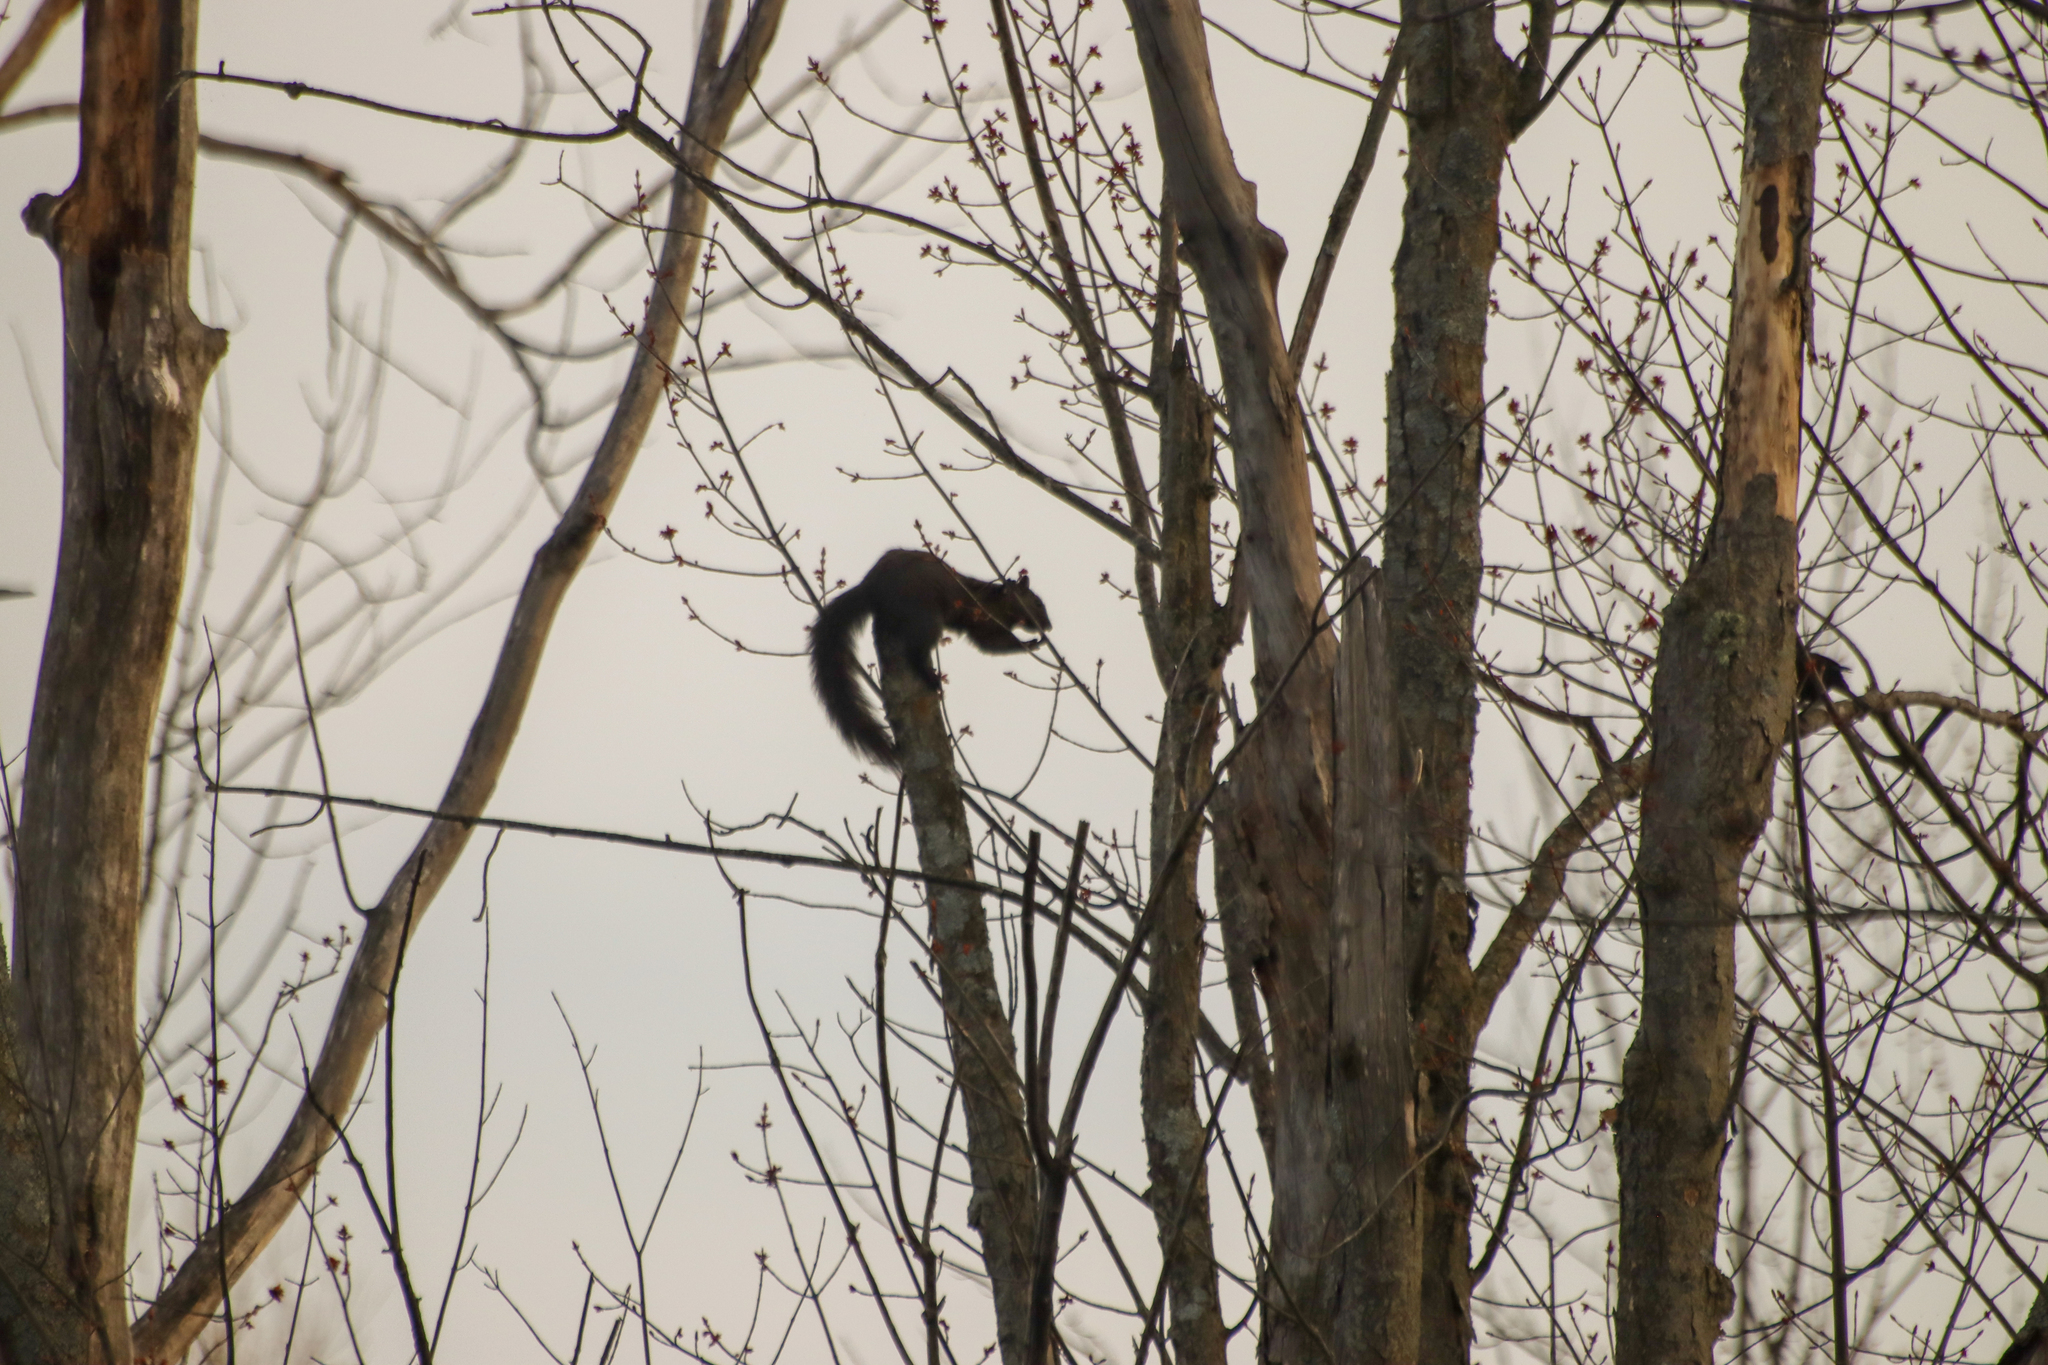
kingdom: Animalia
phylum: Chordata
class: Mammalia
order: Rodentia
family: Sciuridae
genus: Sciurus
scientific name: Sciurus carolinensis
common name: Eastern gray squirrel
